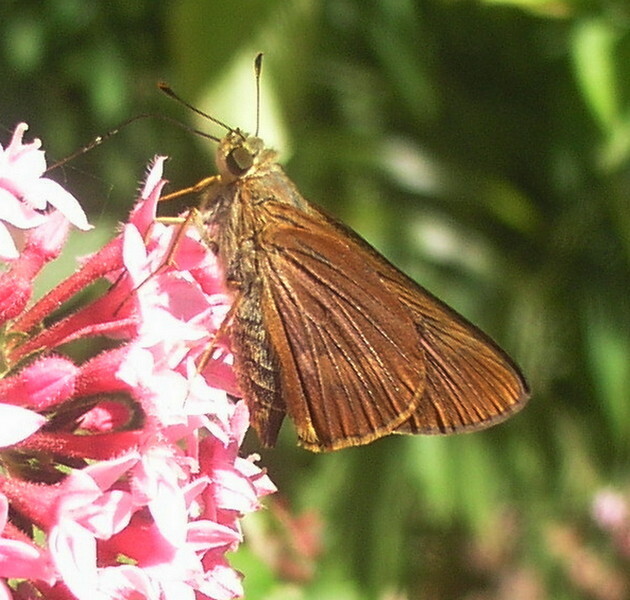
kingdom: Animalia
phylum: Arthropoda
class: Insecta
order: Lepidoptera
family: Hesperiidae
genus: Cephrenes
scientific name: Cephrenes augiades
